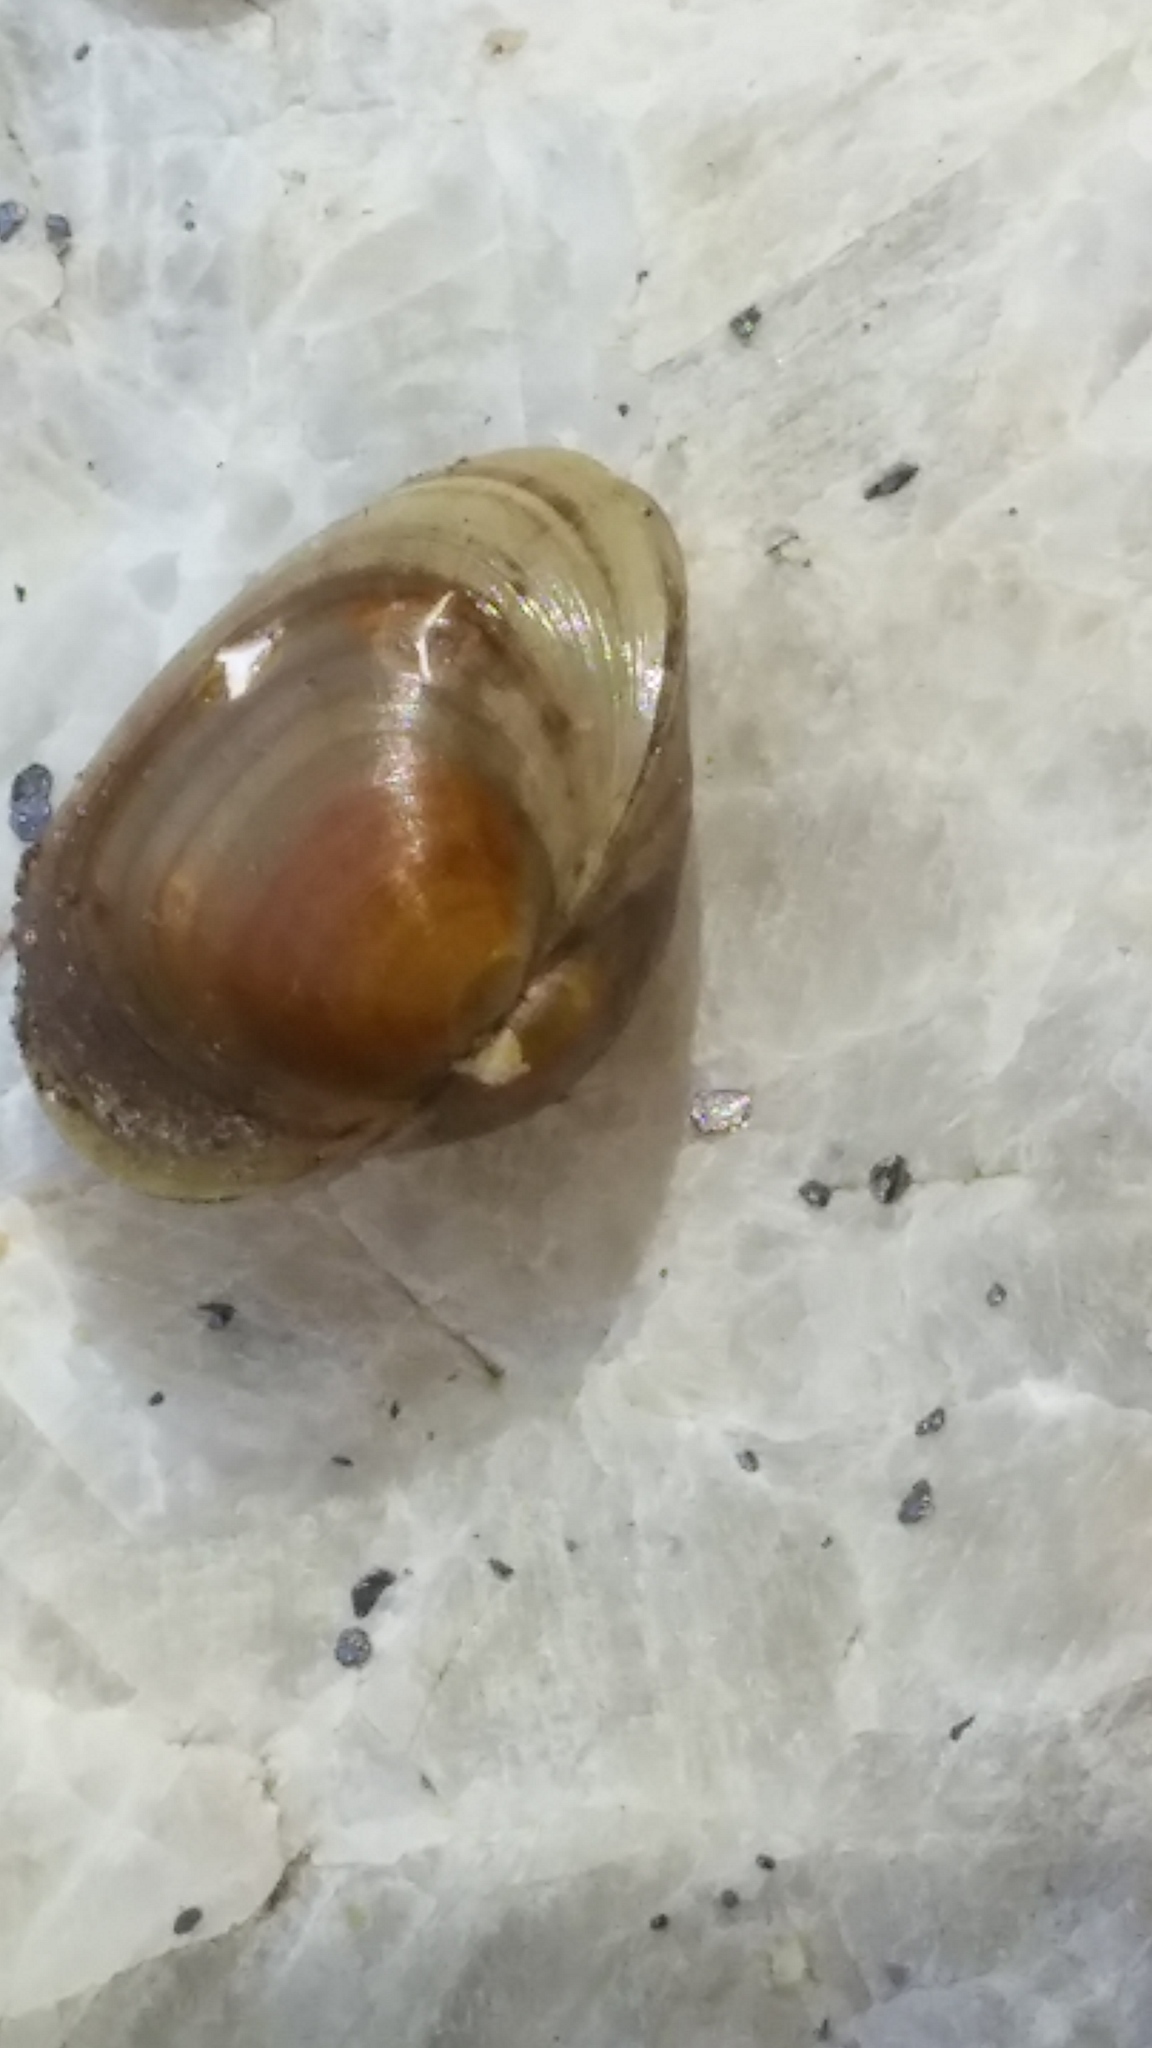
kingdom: Animalia
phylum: Mollusca
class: Bivalvia
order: Sphaeriida
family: Sphaeriidae
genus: Sphaerium
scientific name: Sphaerium rhomboideum
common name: Rhomboid fingernailclam
